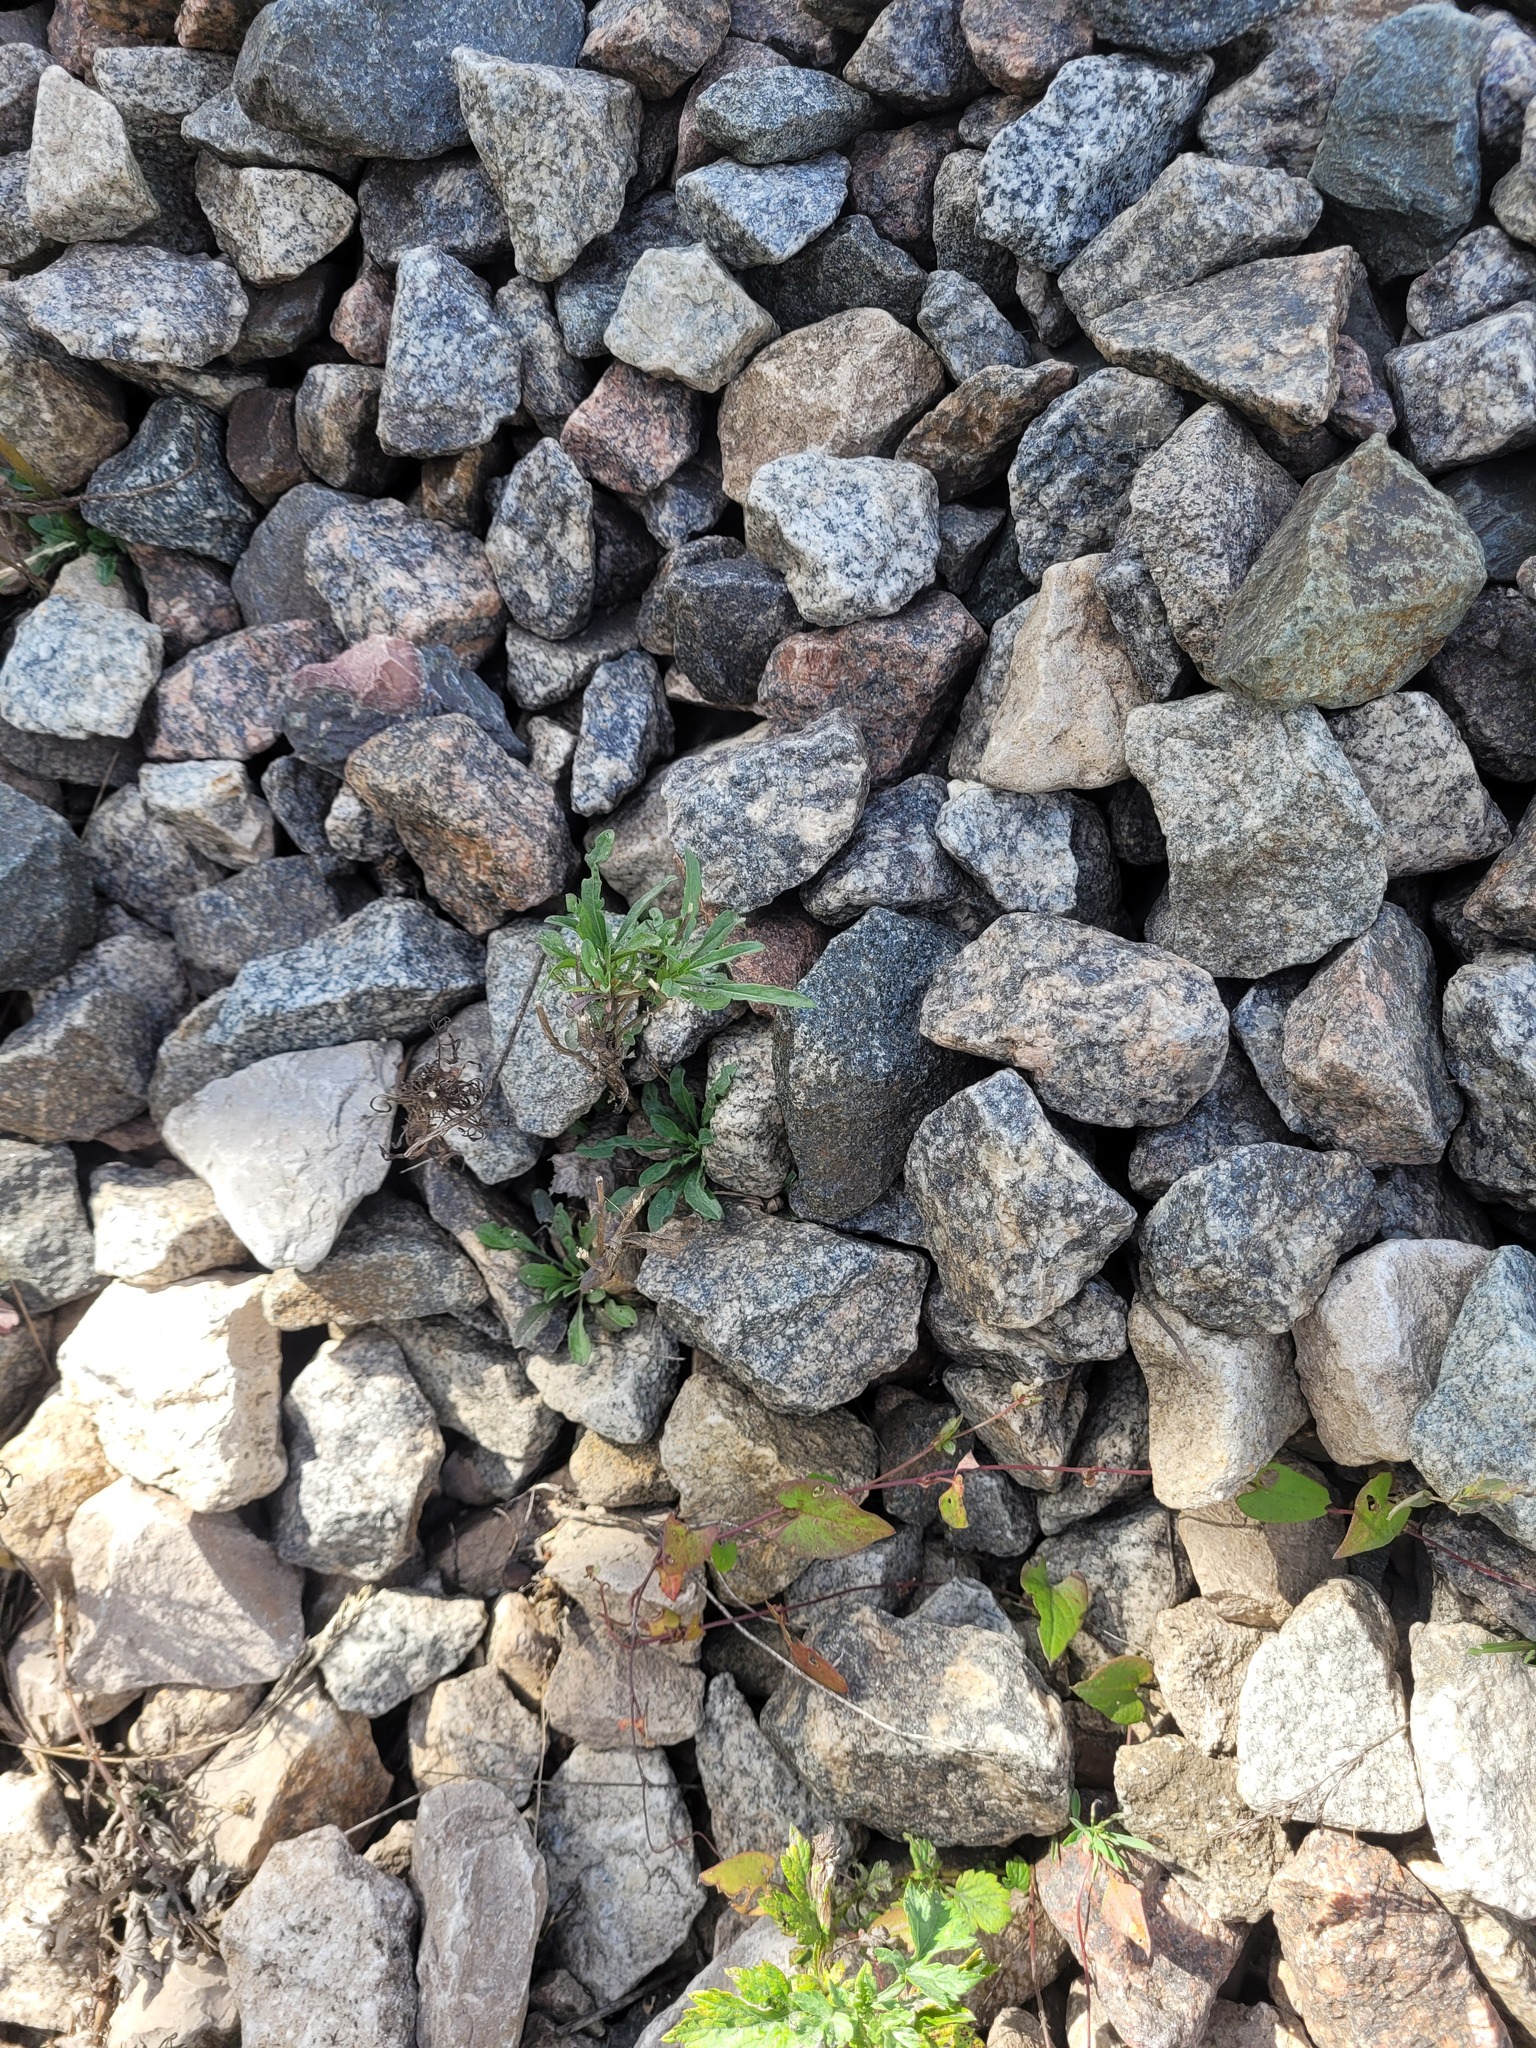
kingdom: Plantae
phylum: Tracheophyta
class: Magnoliopsida
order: Brassicales
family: Brassicaceae
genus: Erysimum
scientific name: Erysimum hieraciifolium
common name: European wallflower
